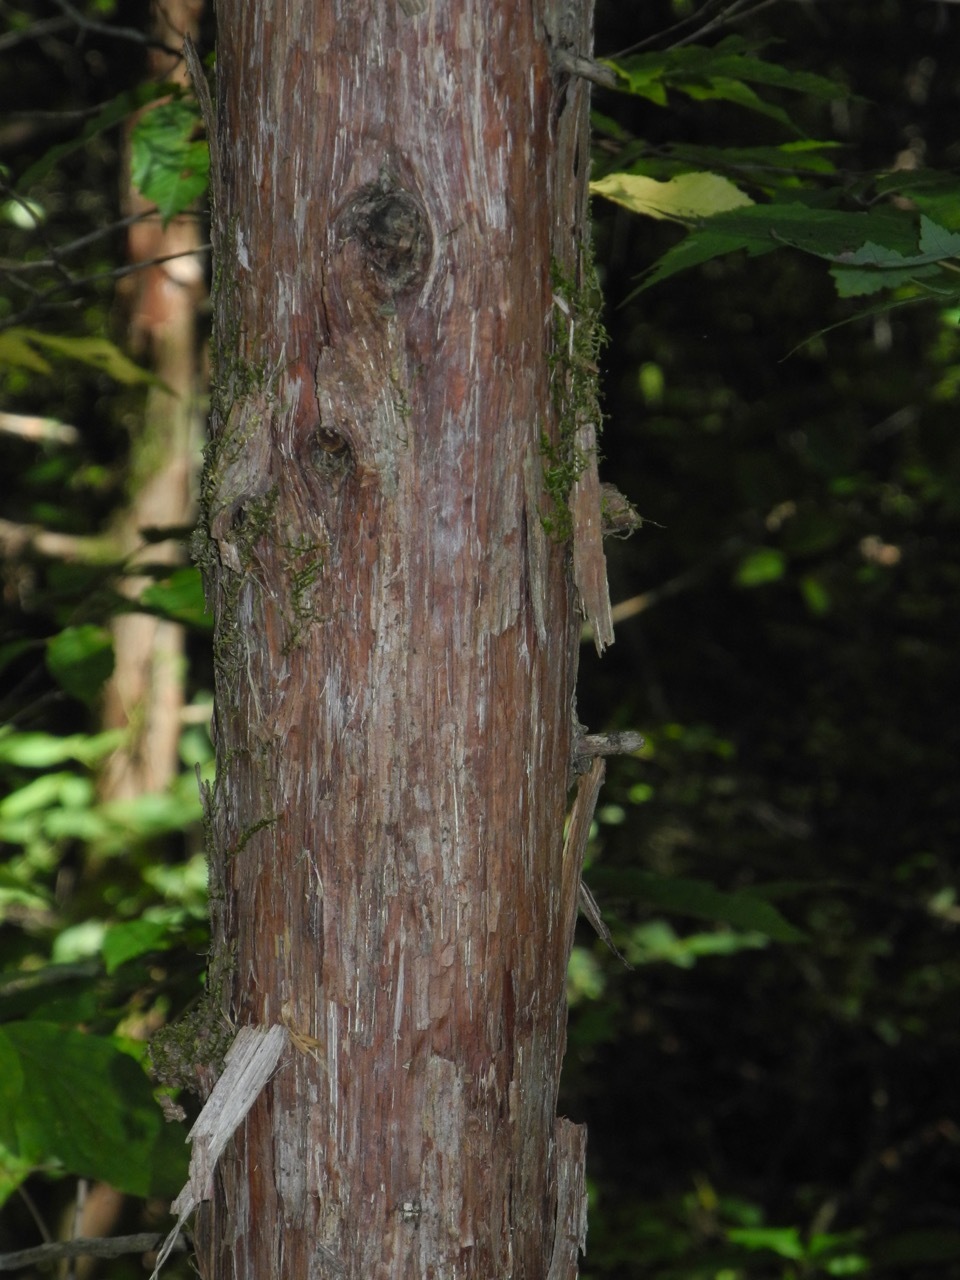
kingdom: Plantae
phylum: Tracheophyta
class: Pinopsida
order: Pinales
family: Cupressaceae
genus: Juniperus
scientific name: Juniperus virginiana
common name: Red juniper
